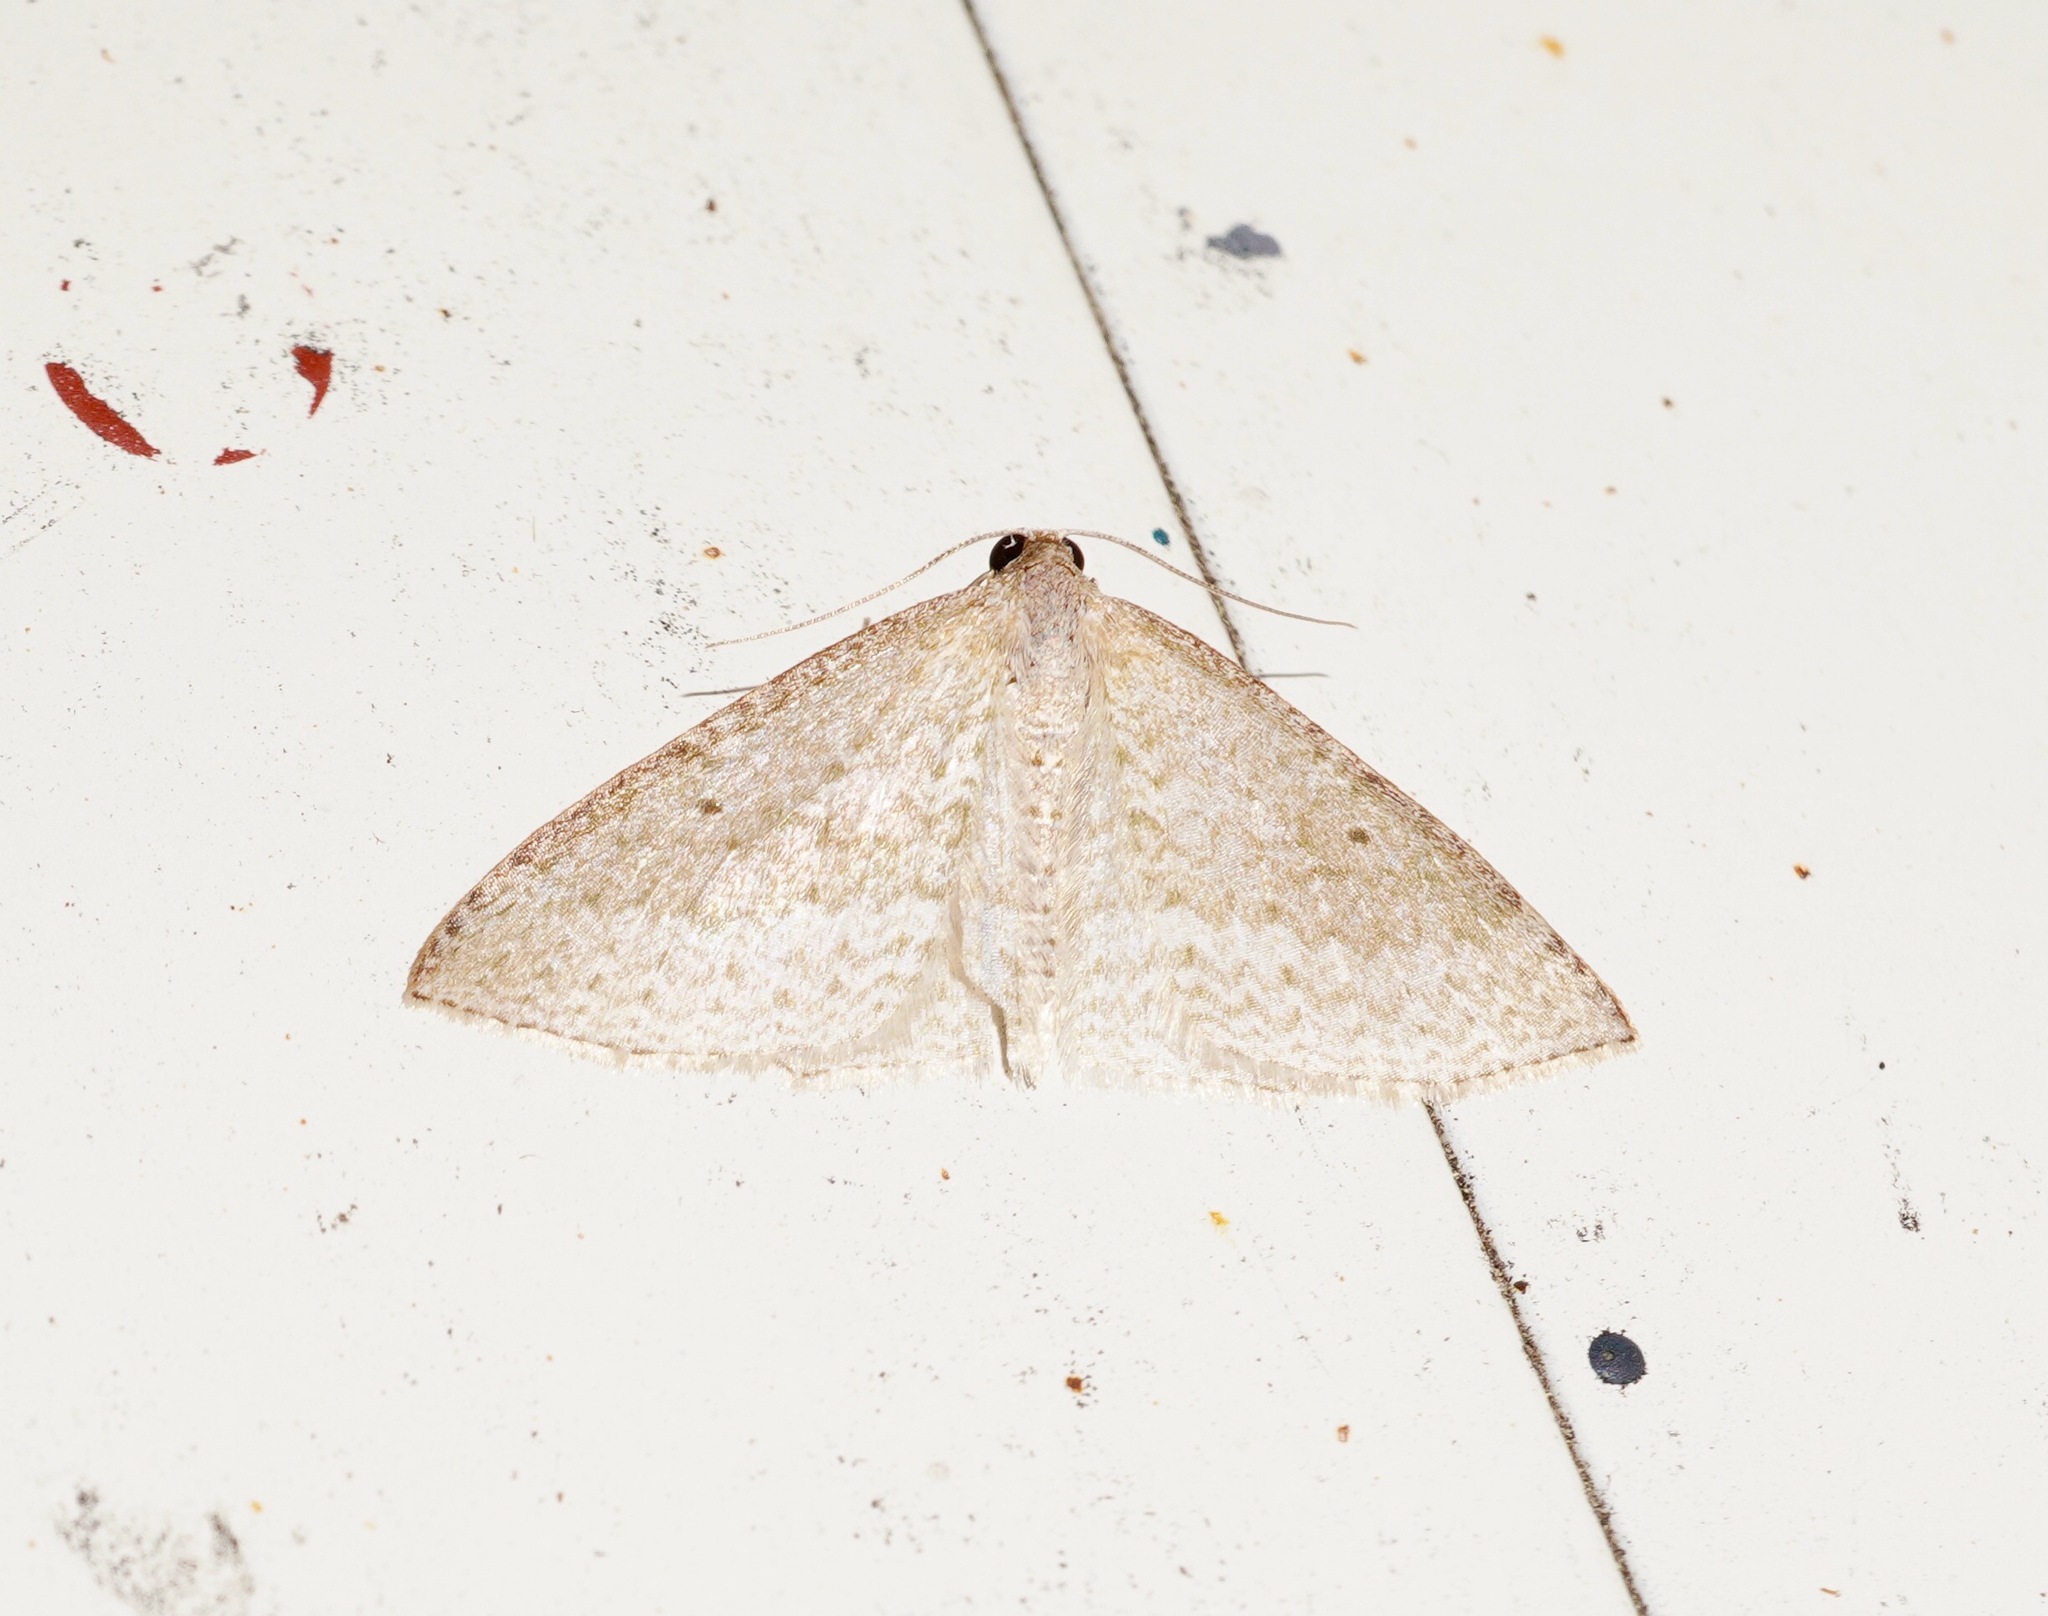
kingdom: Animalia
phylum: Arthropoda
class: Insecta
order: Lepidoptera
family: Geometridae
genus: Poecilasthena
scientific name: Poecilasthena pulchraria
